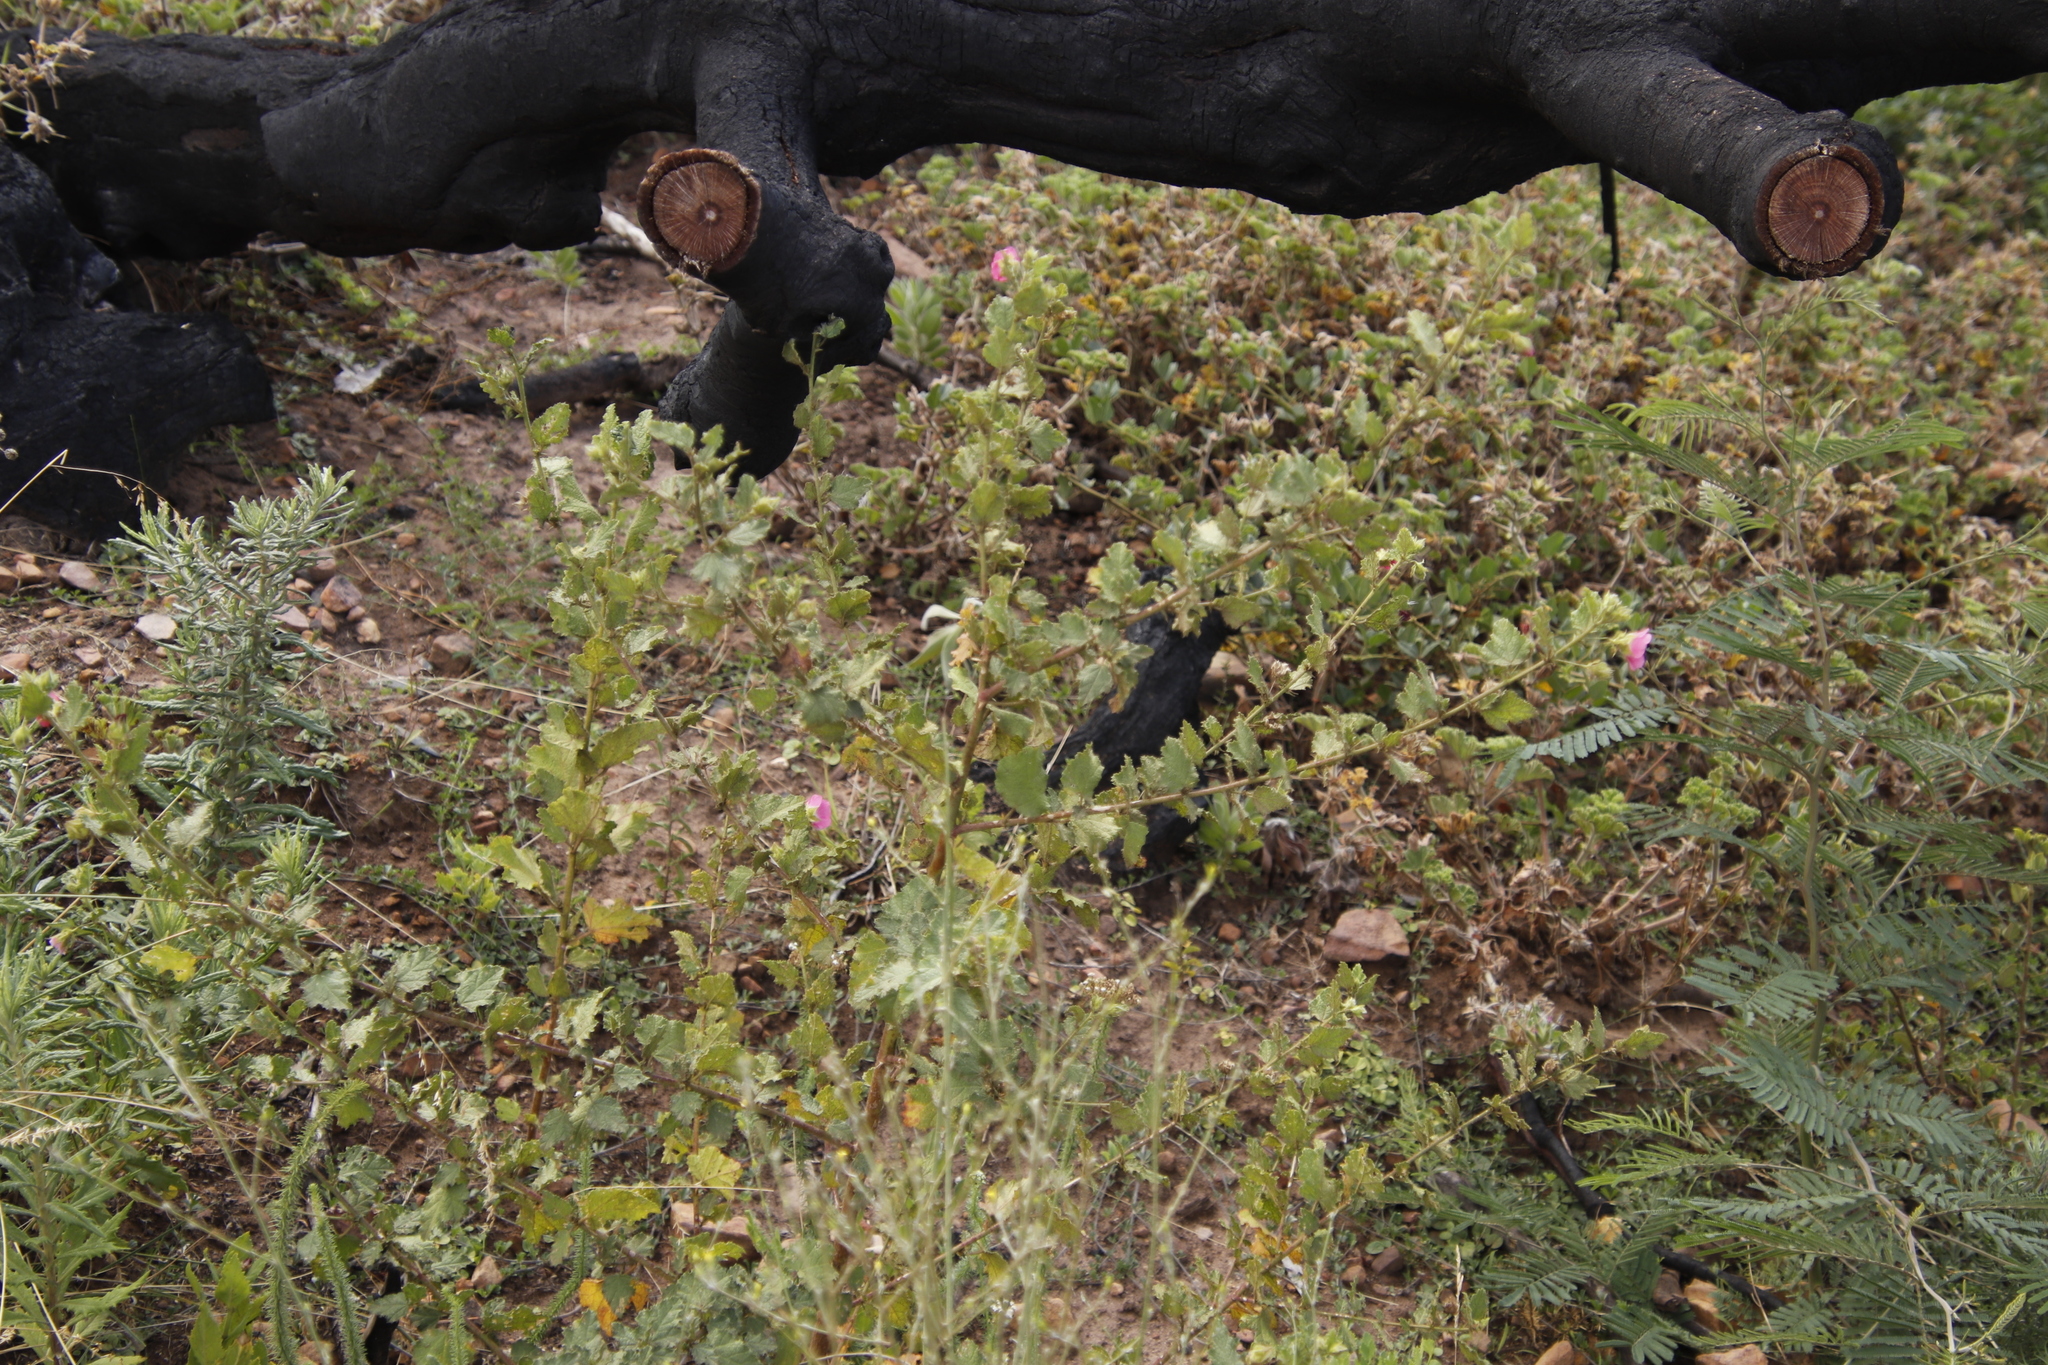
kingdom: Plantae
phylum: Tracheophyta
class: Magnoliopsida
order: Malvales
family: Malvaceae
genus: Anisodontea
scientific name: Anisodontea scabrosa
